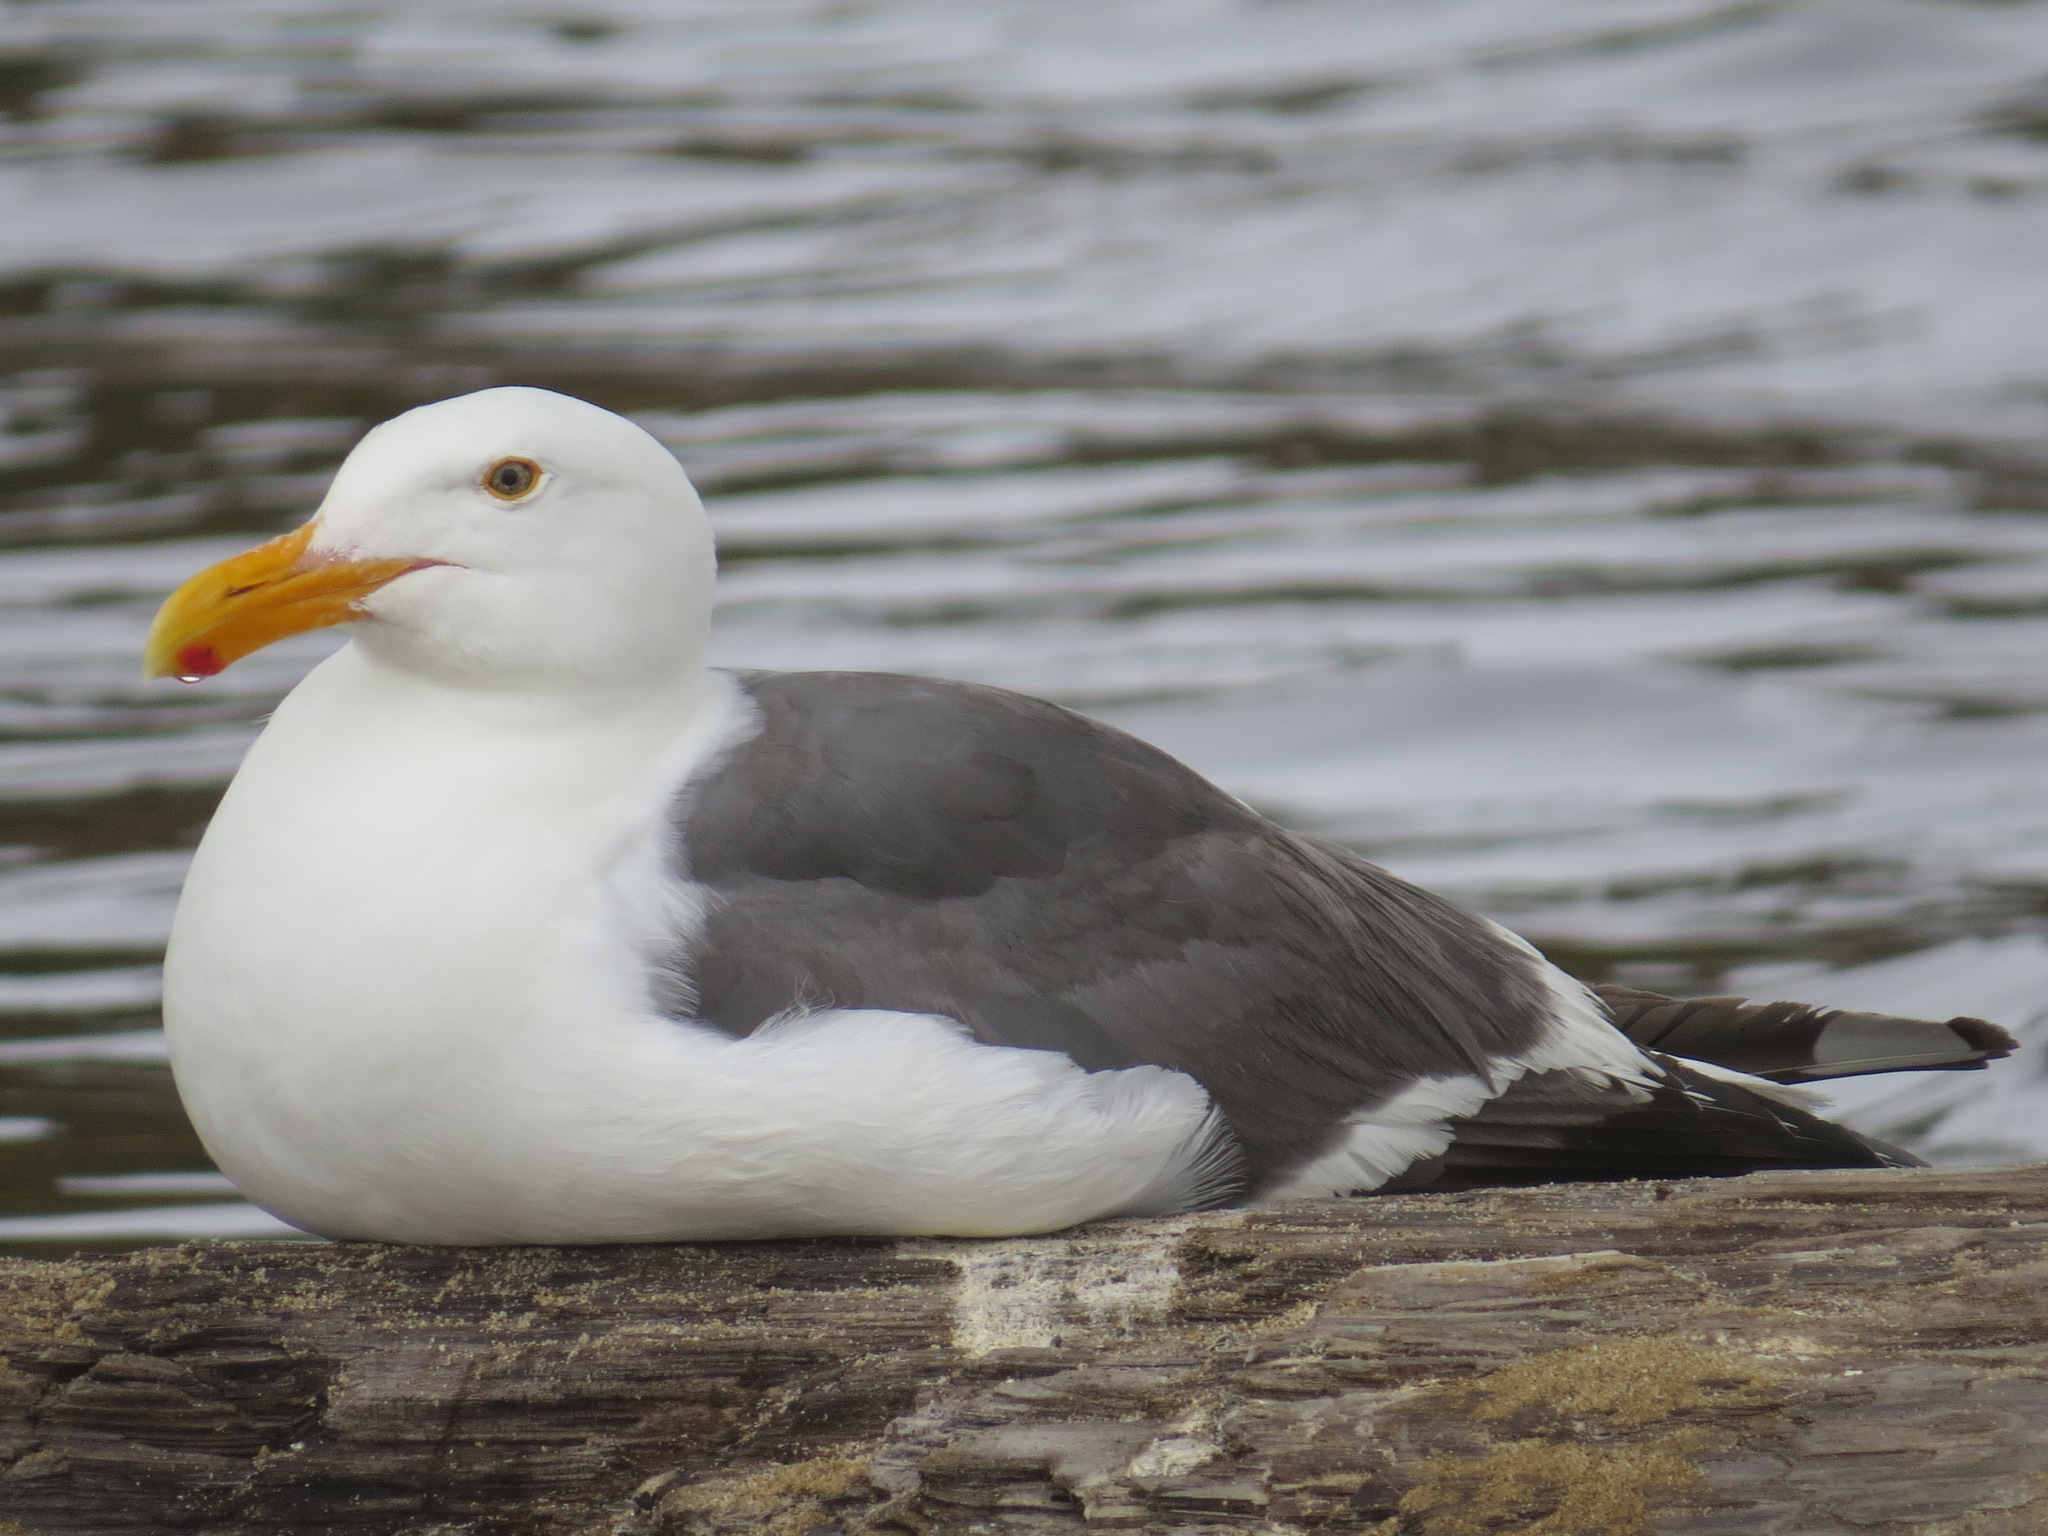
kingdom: Animalia
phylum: Chordata
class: Aves
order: Charadriiformes
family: Laridae
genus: Larus
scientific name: Larus occidentalis
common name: Western gull
